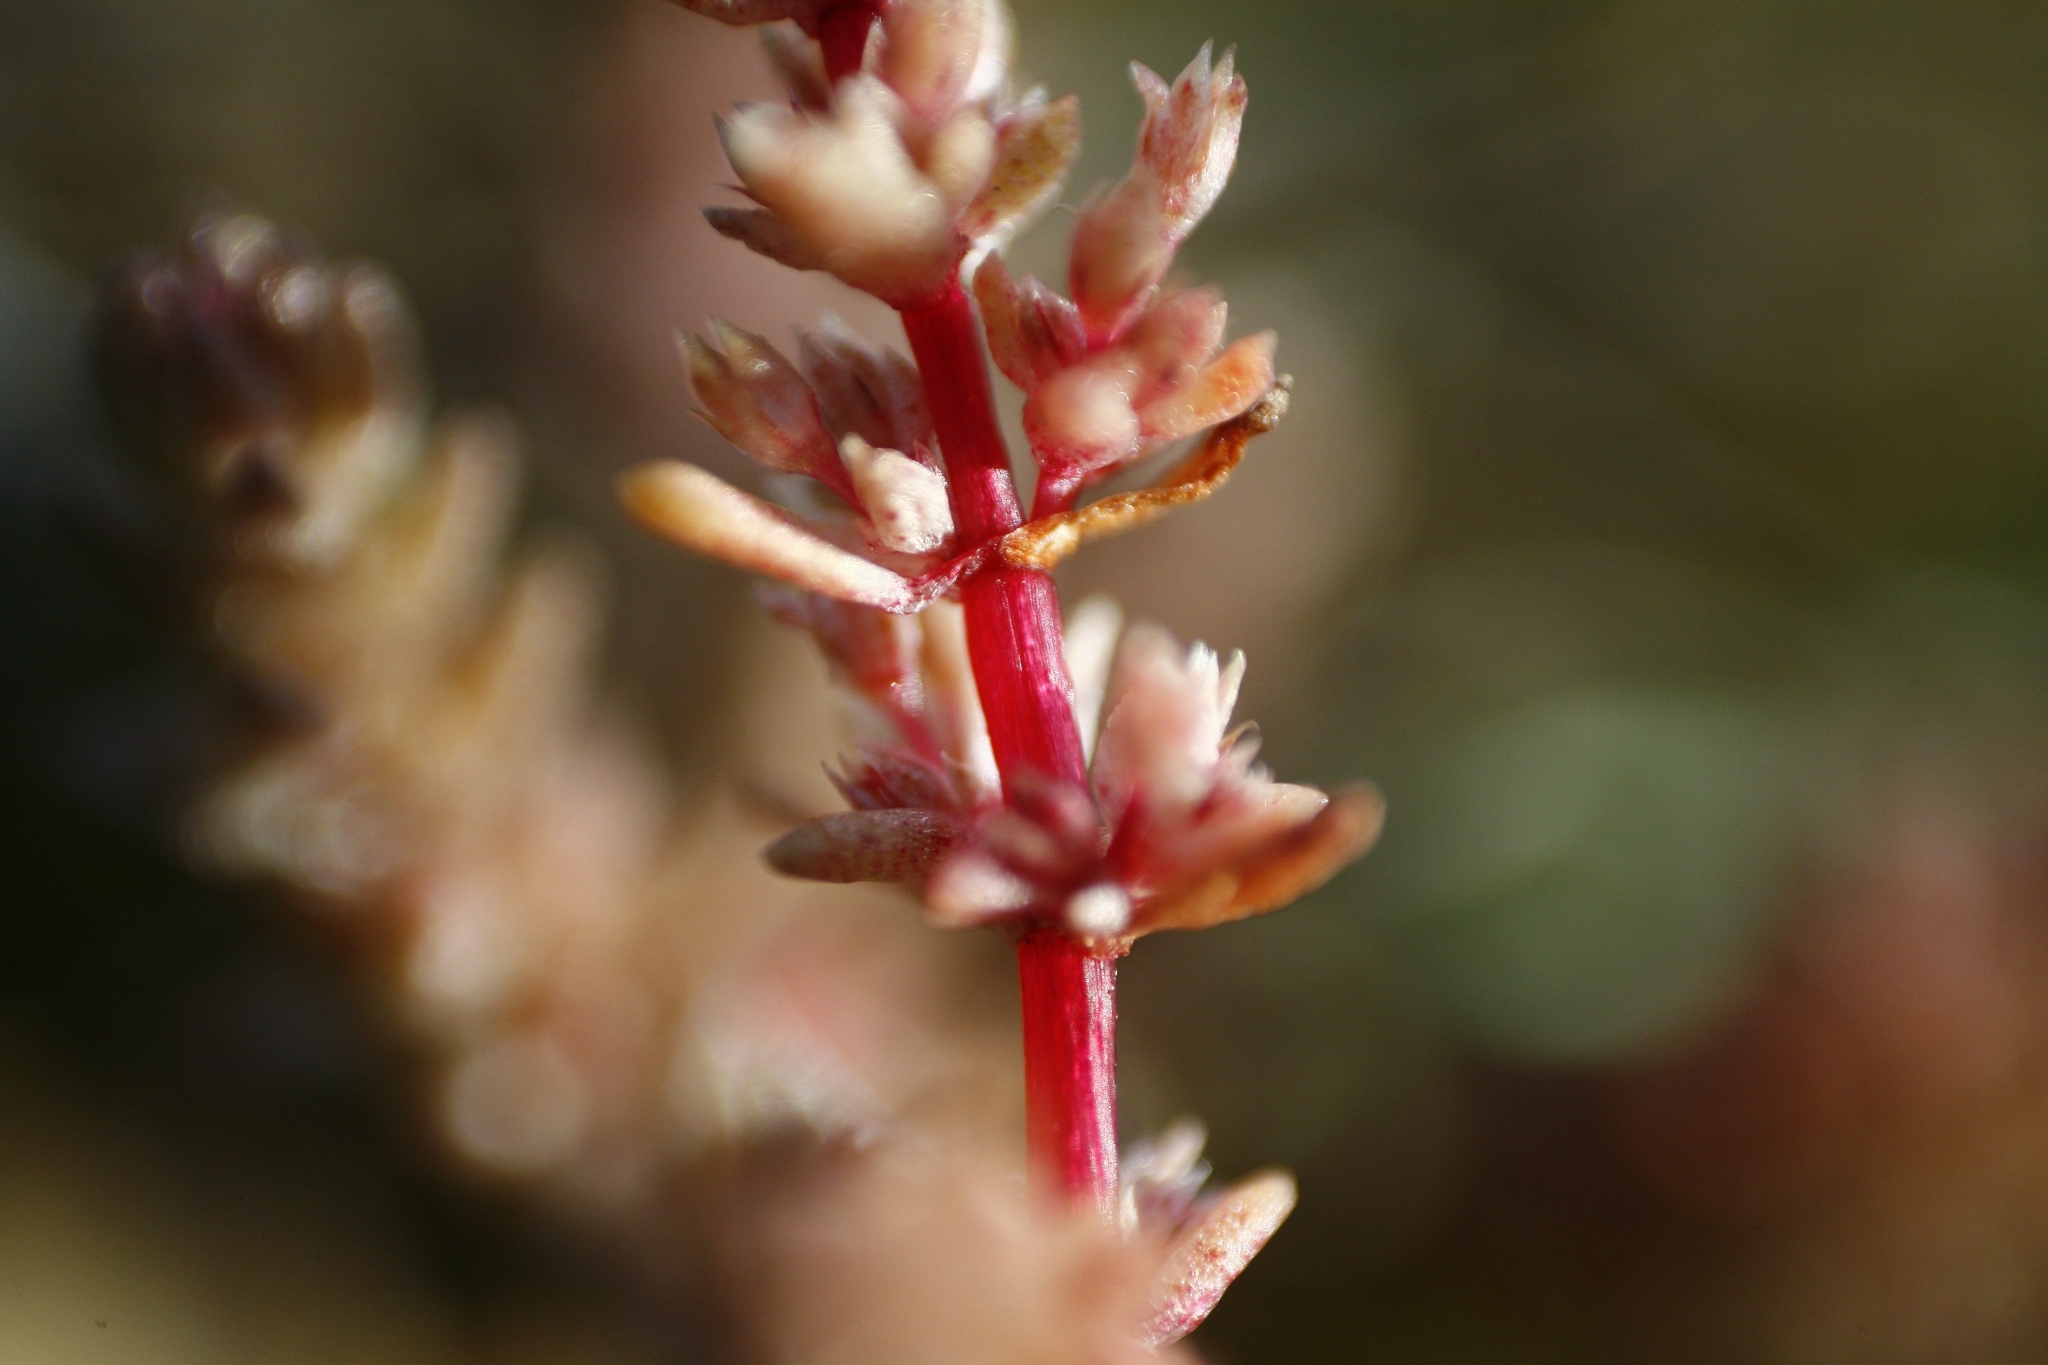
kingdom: Plantae
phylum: Tracheophyta
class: Magnoliopsida
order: Saxifragales
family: Crassulaceae
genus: Crassula
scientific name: Crassula sieberiana
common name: Siberian pygmyweed
